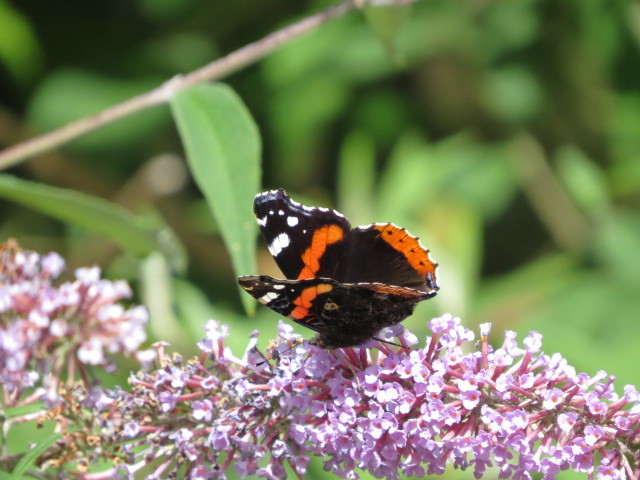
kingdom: Animalia
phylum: Arthropoda
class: Insecta
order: Lepidoptera
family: Nymphalidae
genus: Vanessa
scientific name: Vanessa atalanta
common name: Red admiral
